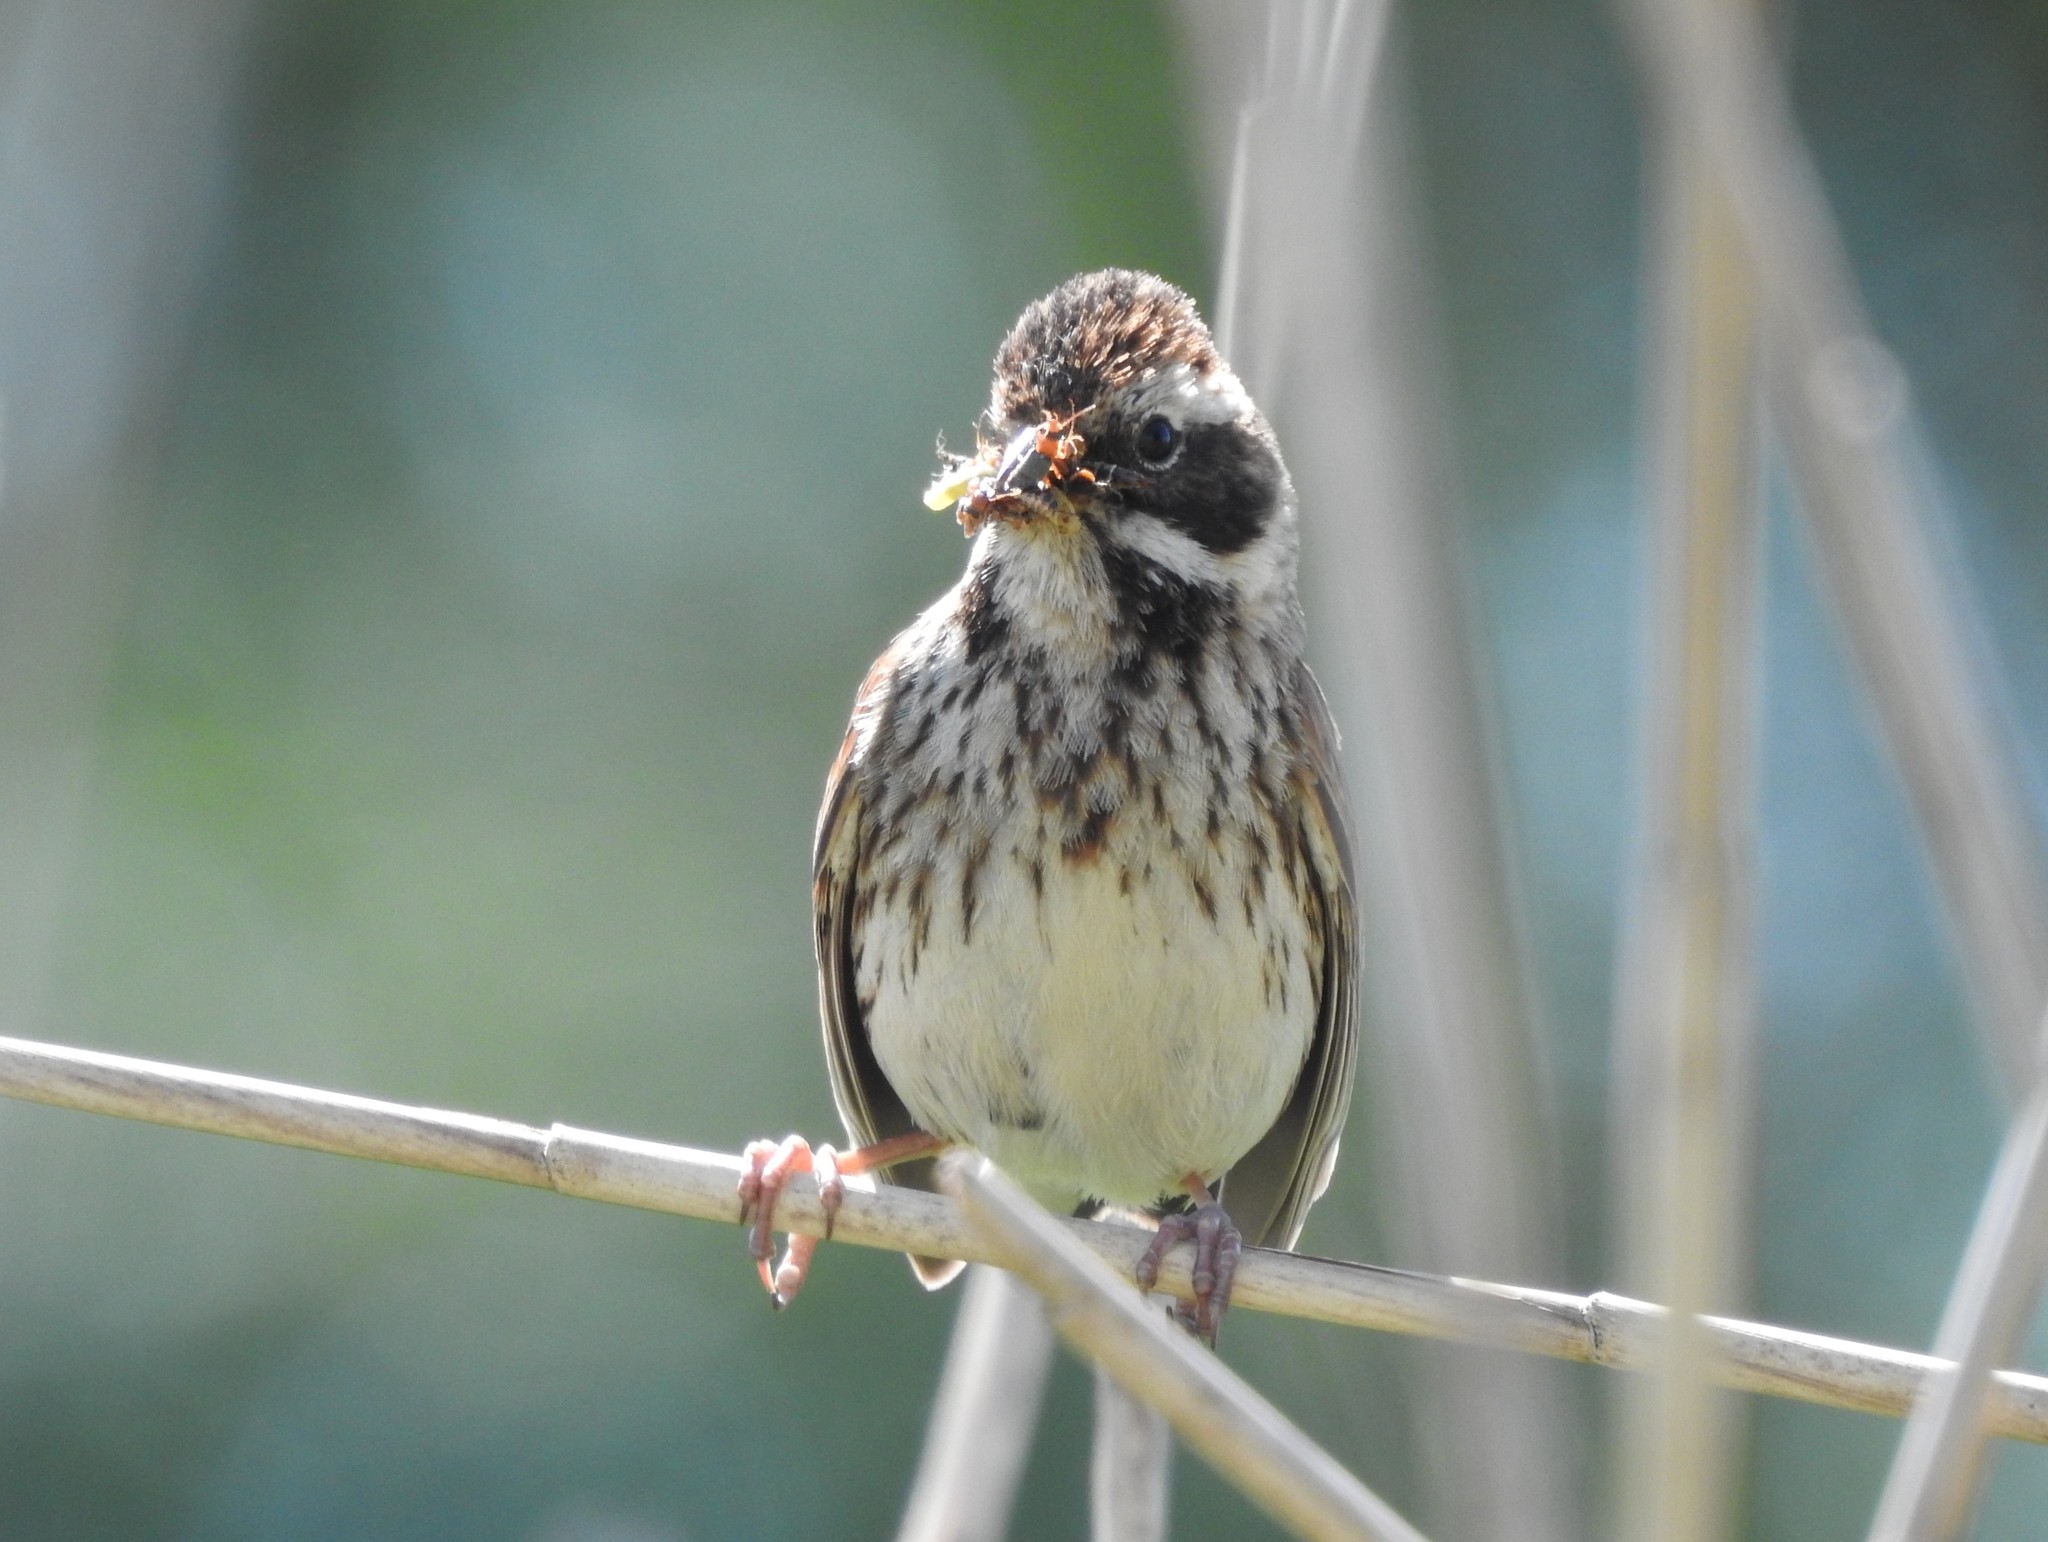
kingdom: Animalia
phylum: Chordata
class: Aves
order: Passeriformes
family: Emberizidae
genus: Emberiza
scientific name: Emberiza schoeniclus
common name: Reed bunting
